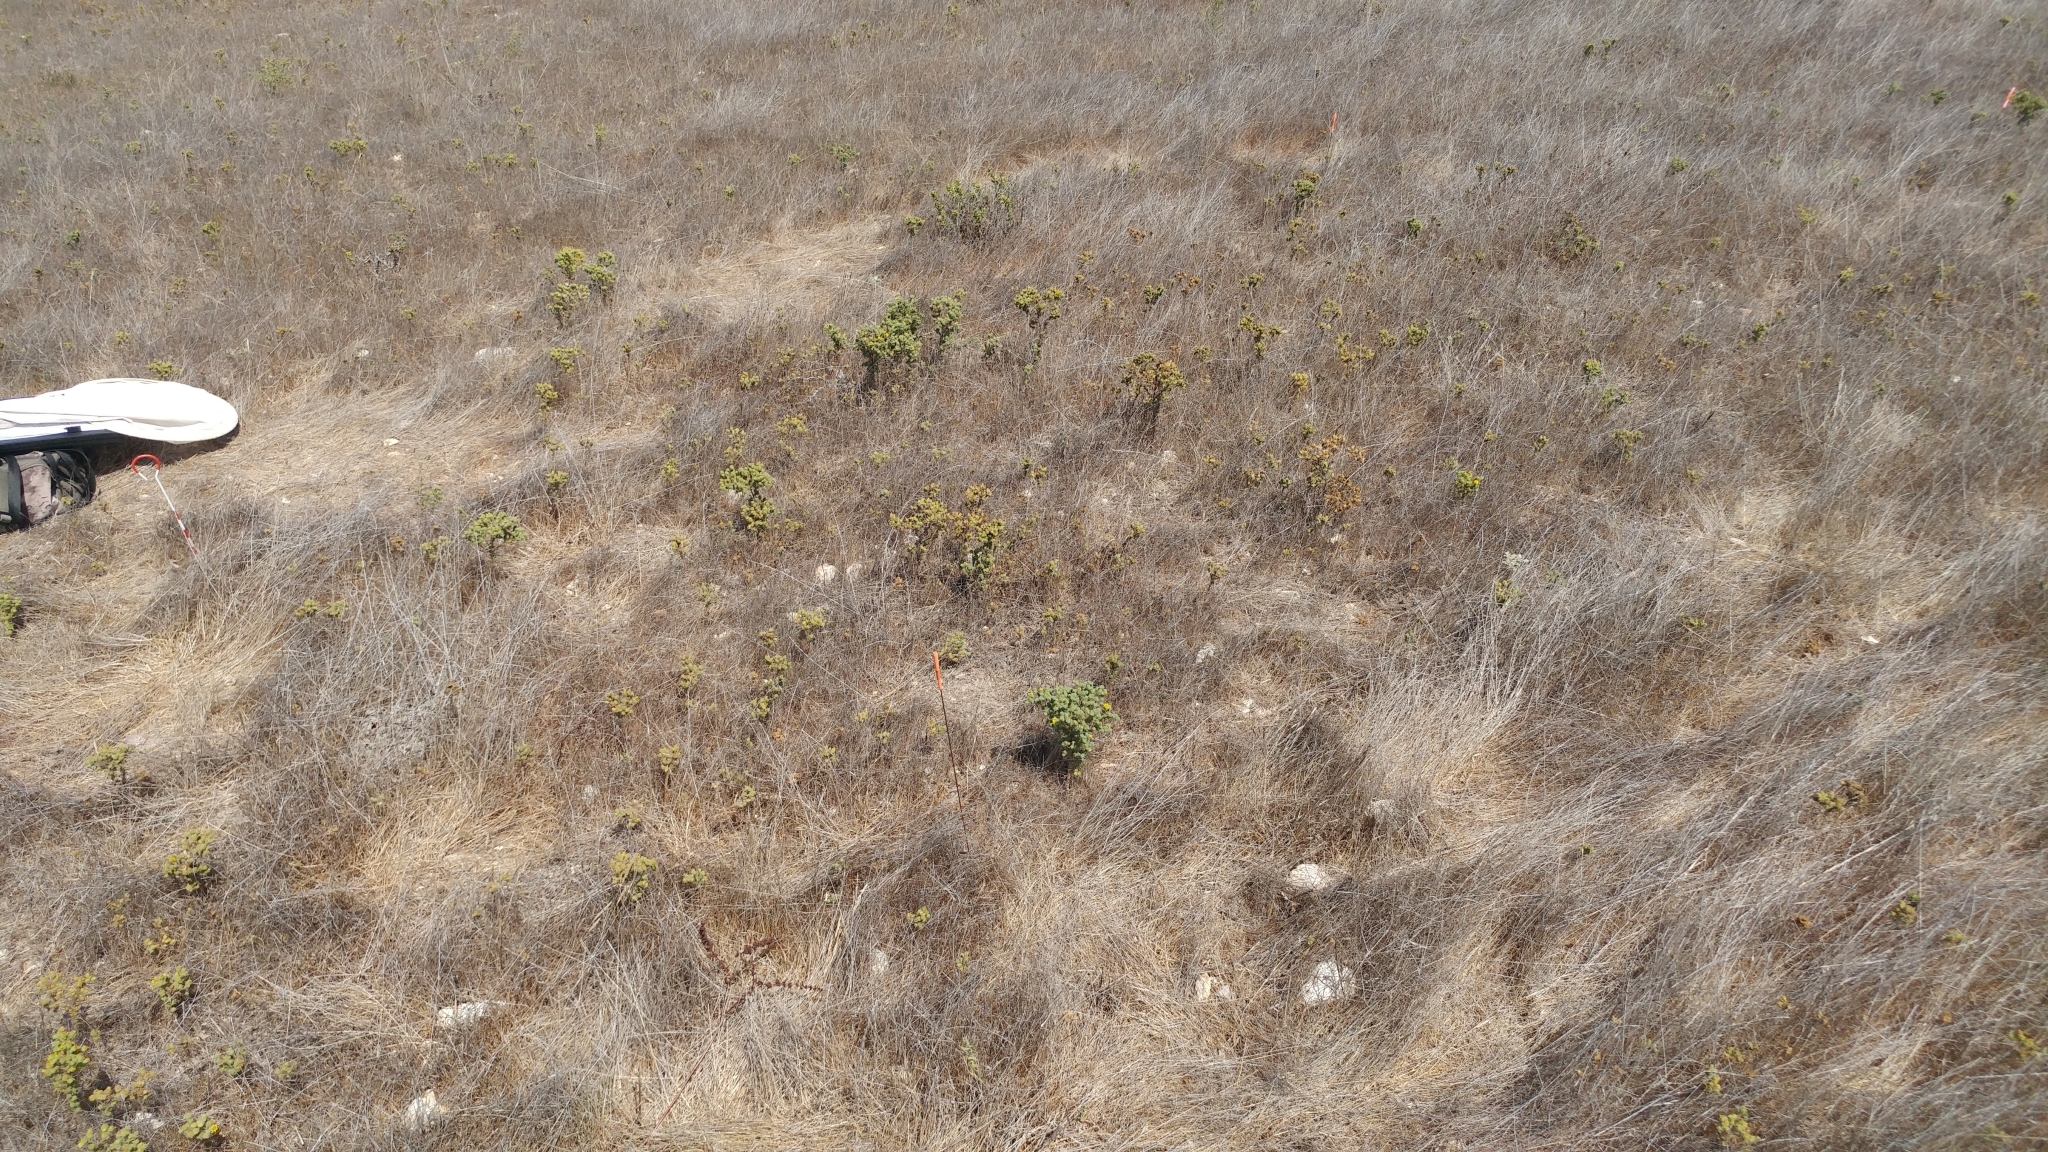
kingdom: Plantae
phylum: Tracheophyta
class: Magnoliopsida
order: Asterales
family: Asteraceae
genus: Deinandra
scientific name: Deinandra increscens
